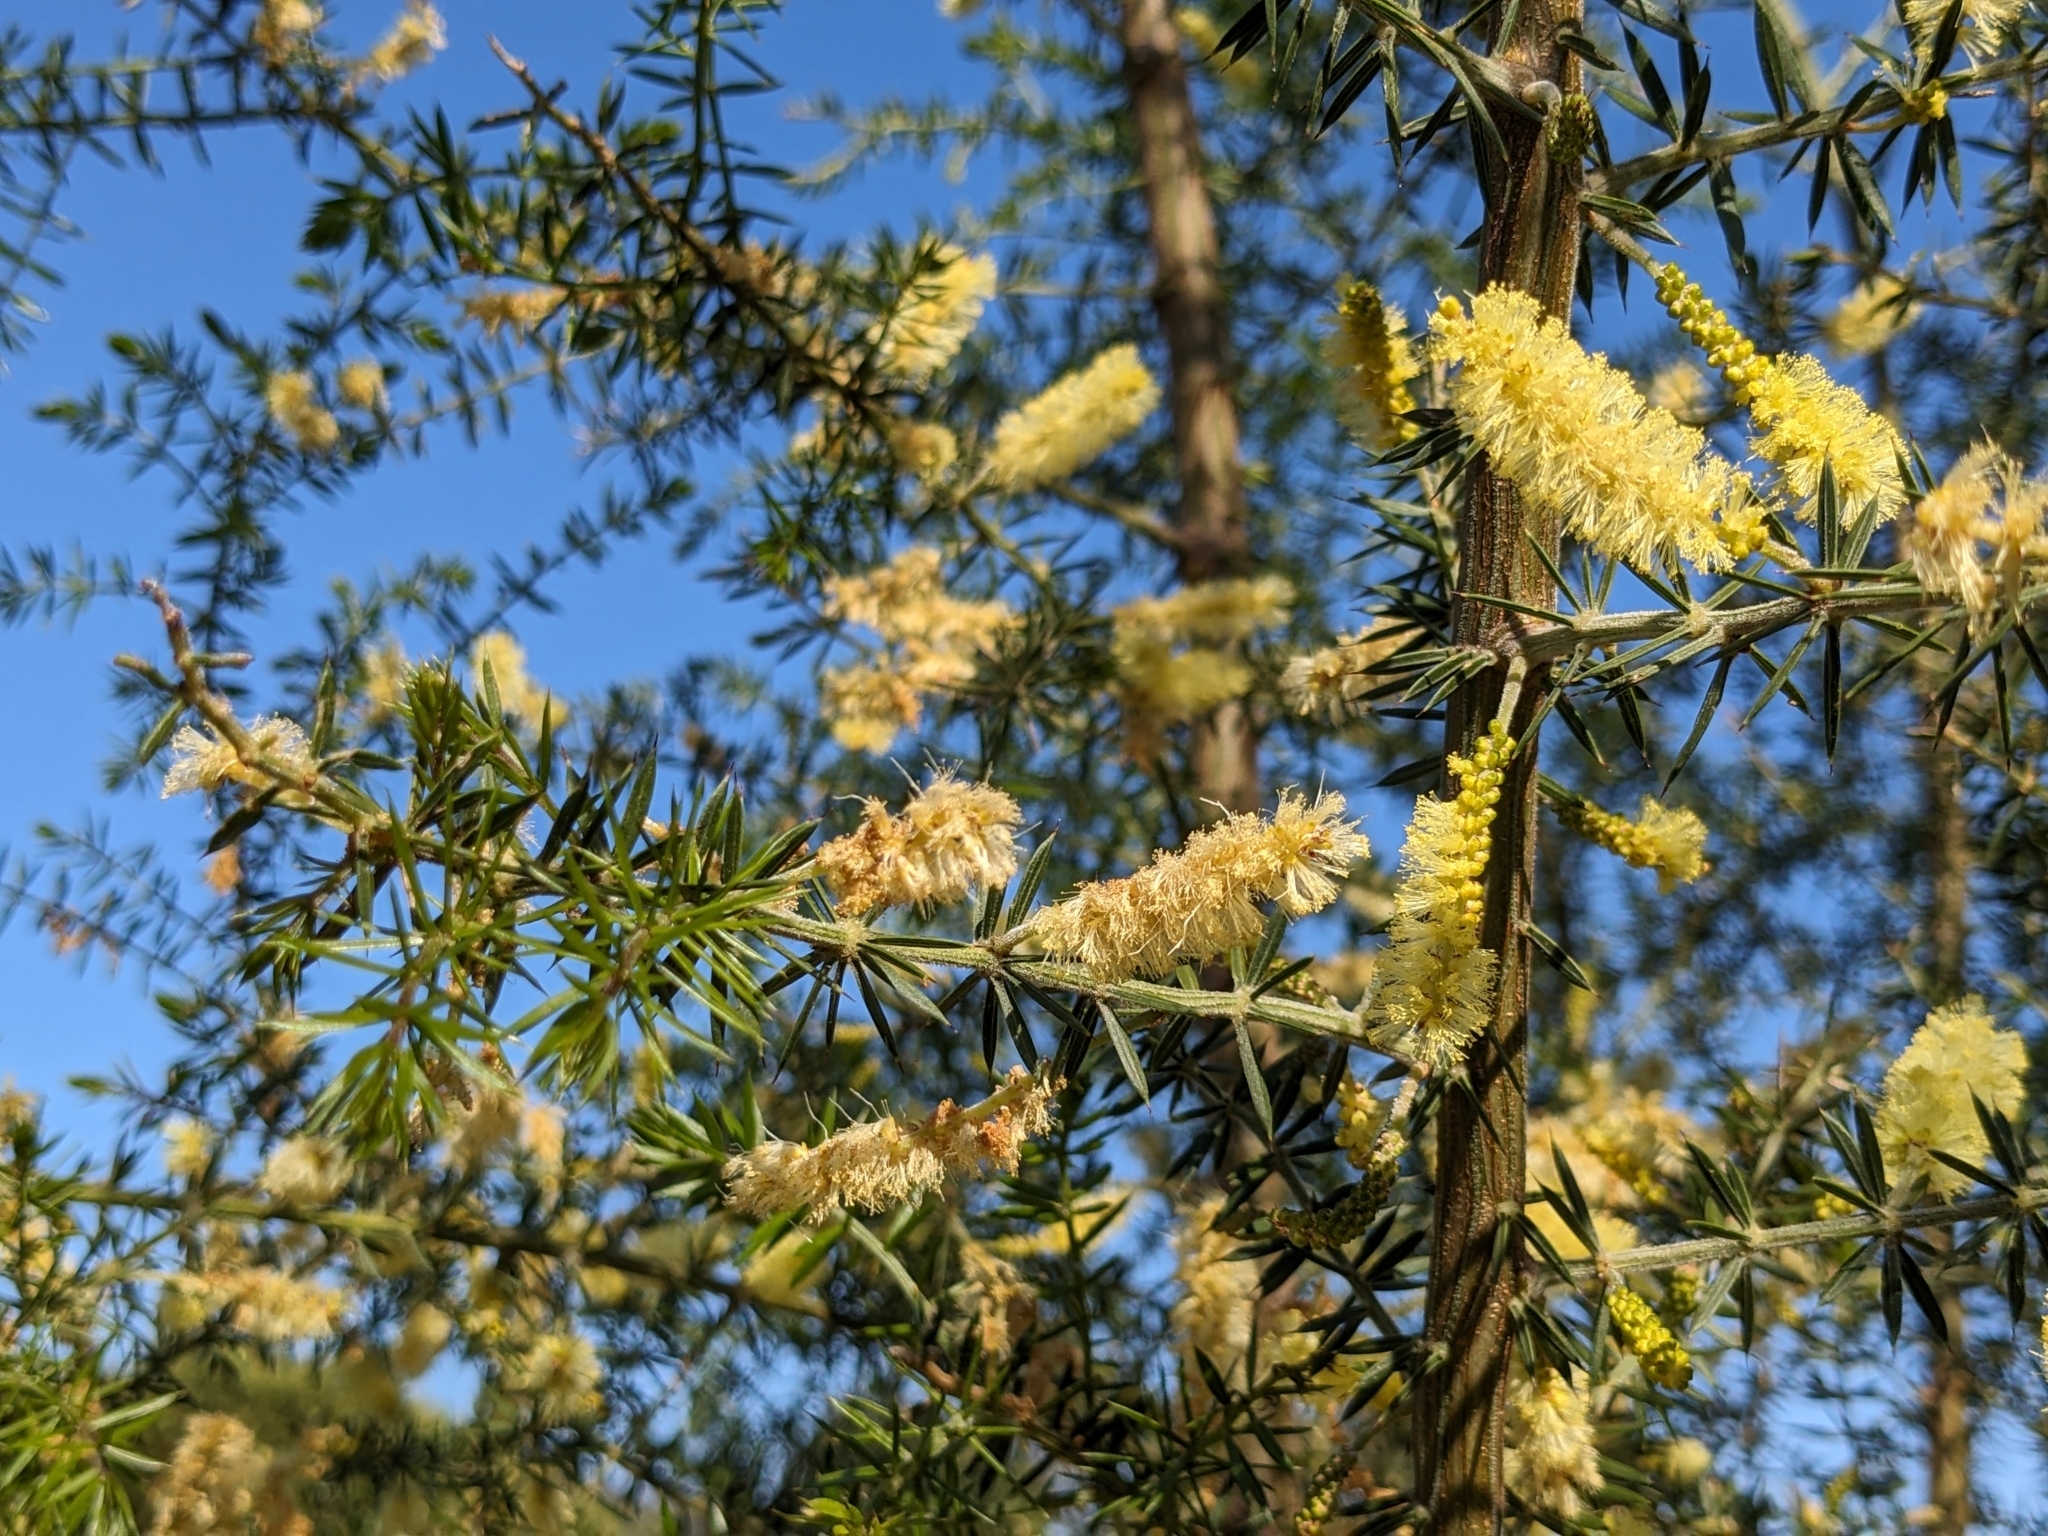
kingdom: Plantae
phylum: Tracheophyta
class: Magnoliopsida
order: Fabales
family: Fabaceae
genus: Acacia
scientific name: Acacia verticillata
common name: Prickly moses
